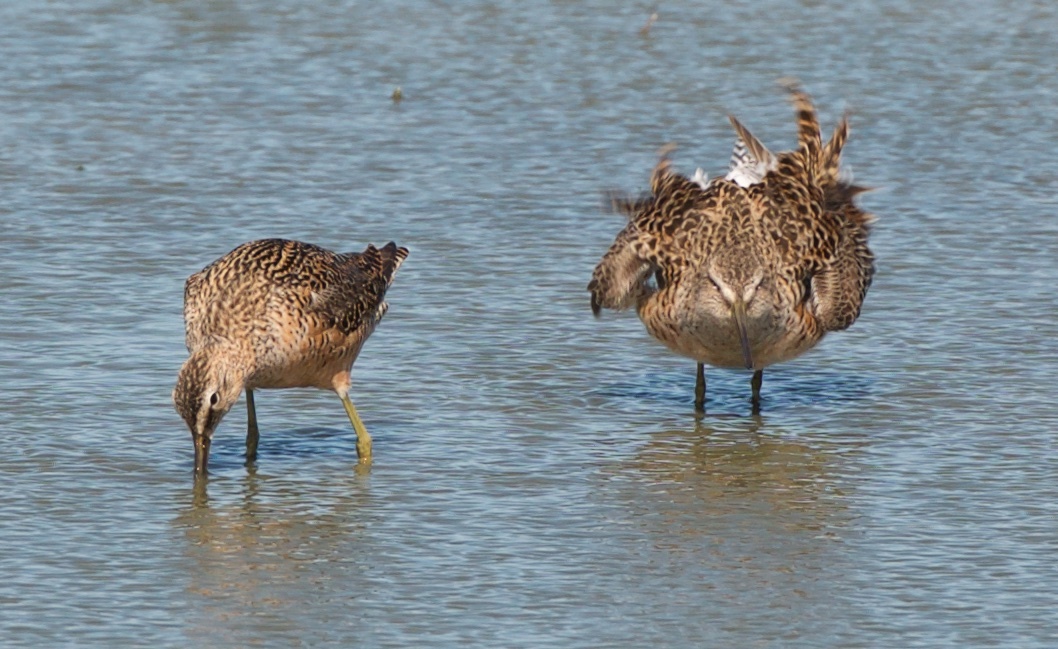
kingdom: Animalia
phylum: Chordata
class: Aves
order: Charadriiformes
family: Scolopacidae
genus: Limnodromus
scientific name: Limnodromus scolopaceus
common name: Long-billed dowitcher
